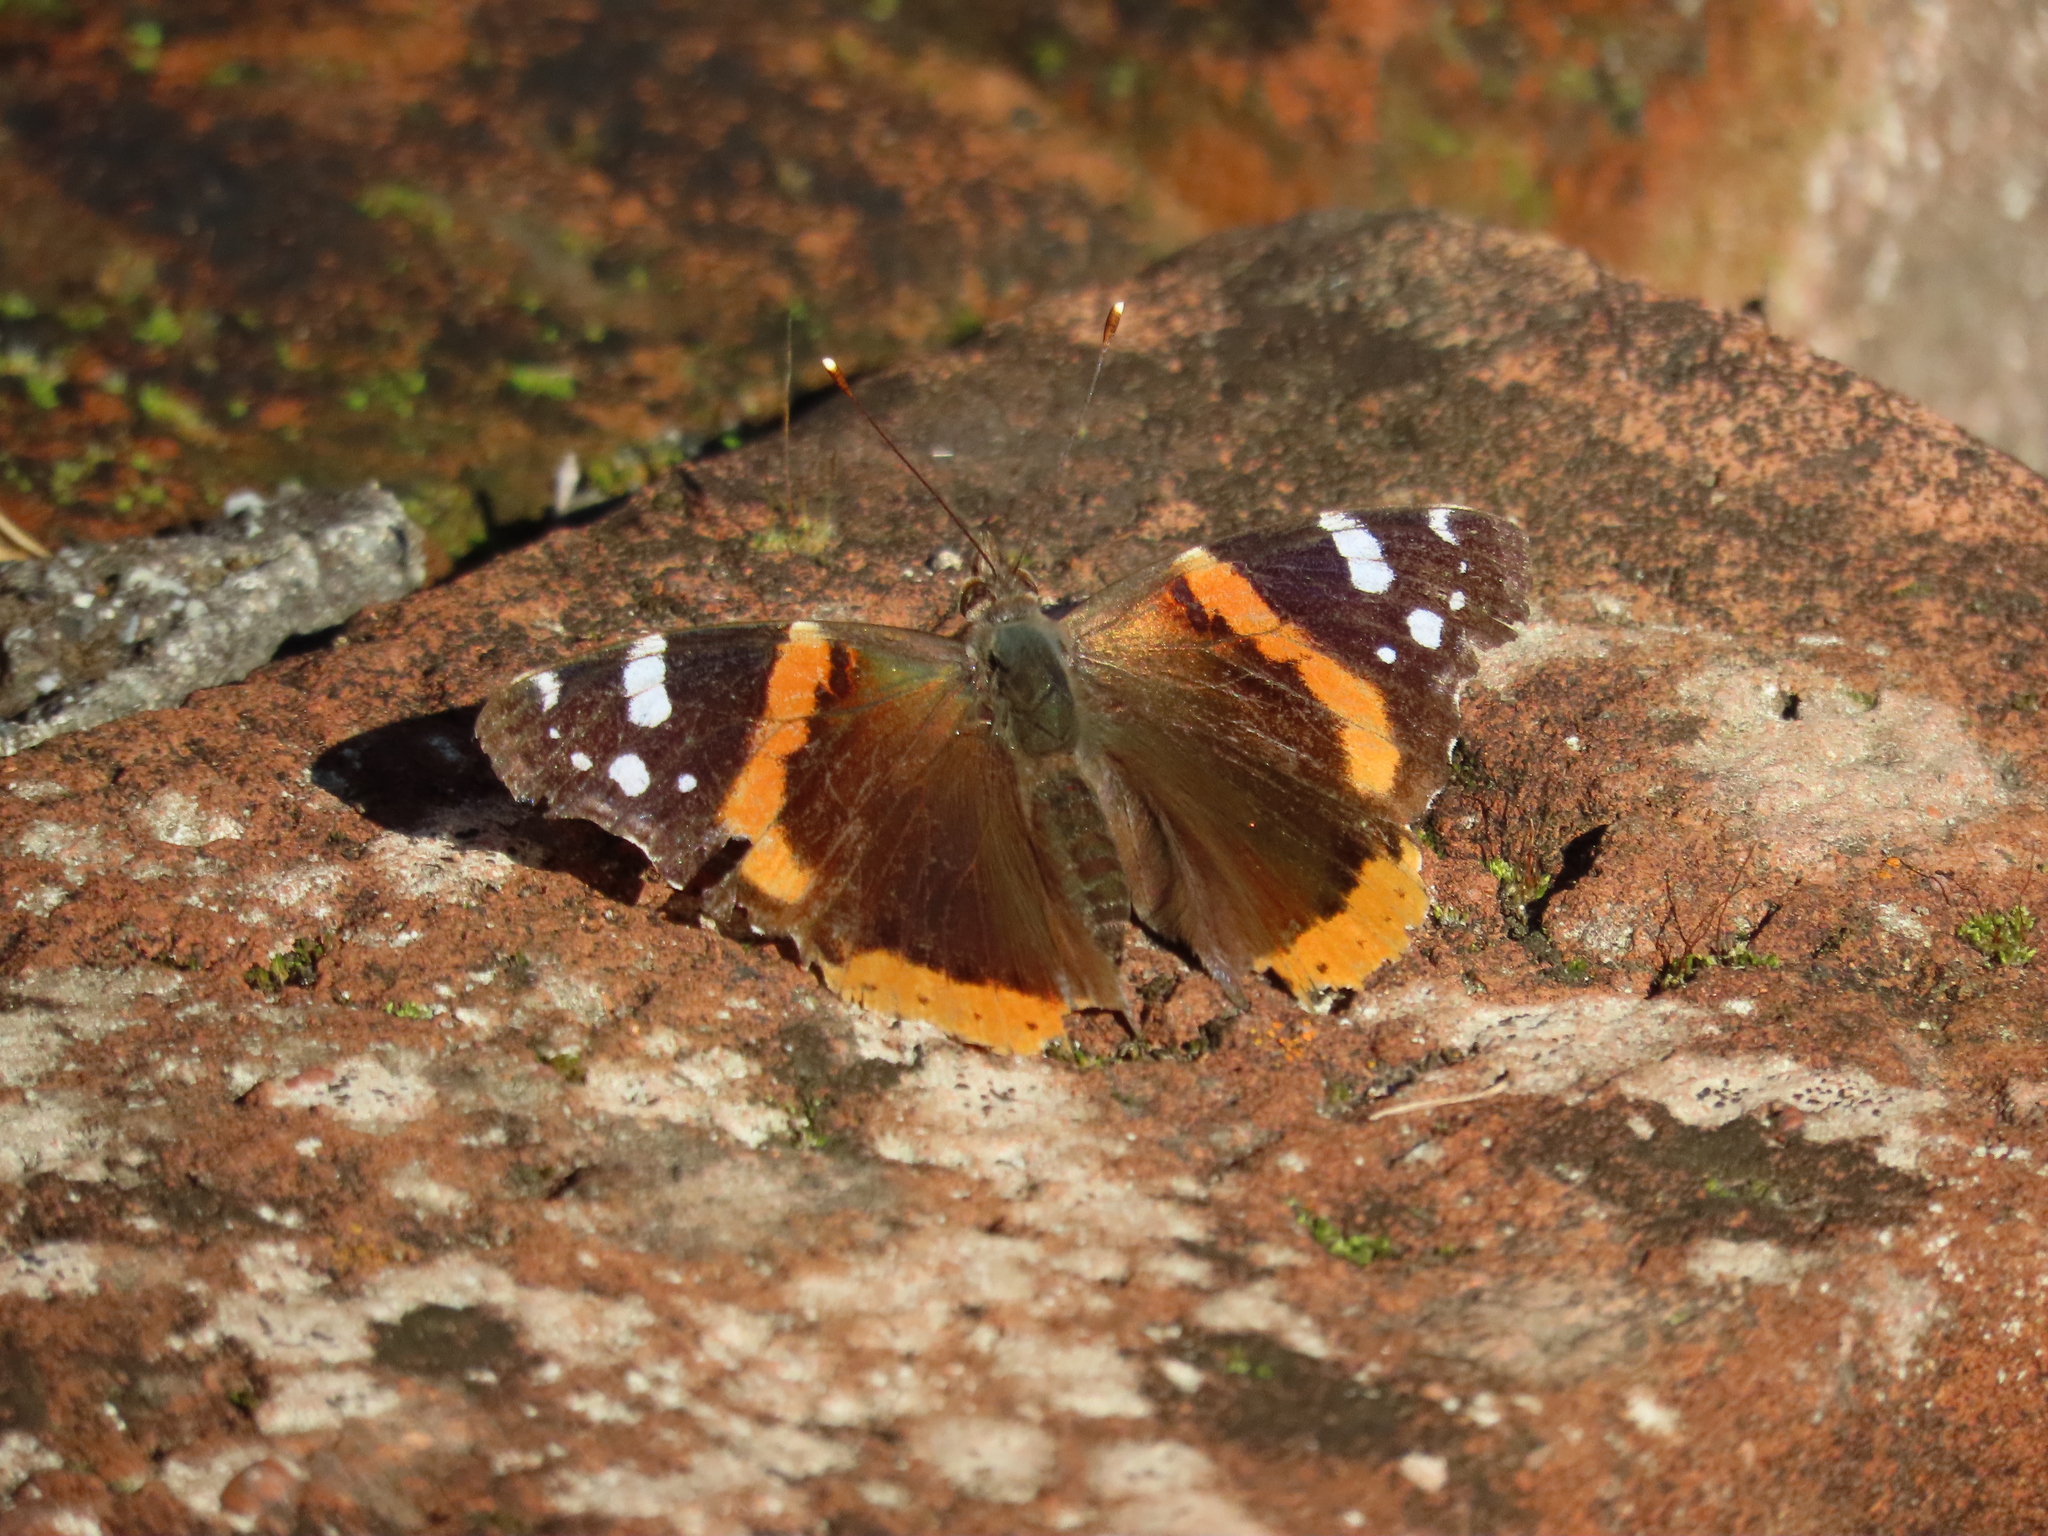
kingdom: Animalia
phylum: Arthropoda
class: Insecta
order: Lepidoptera
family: Nymphalidae
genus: Vanessa
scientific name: Vanessa atalanta
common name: Red admiral
